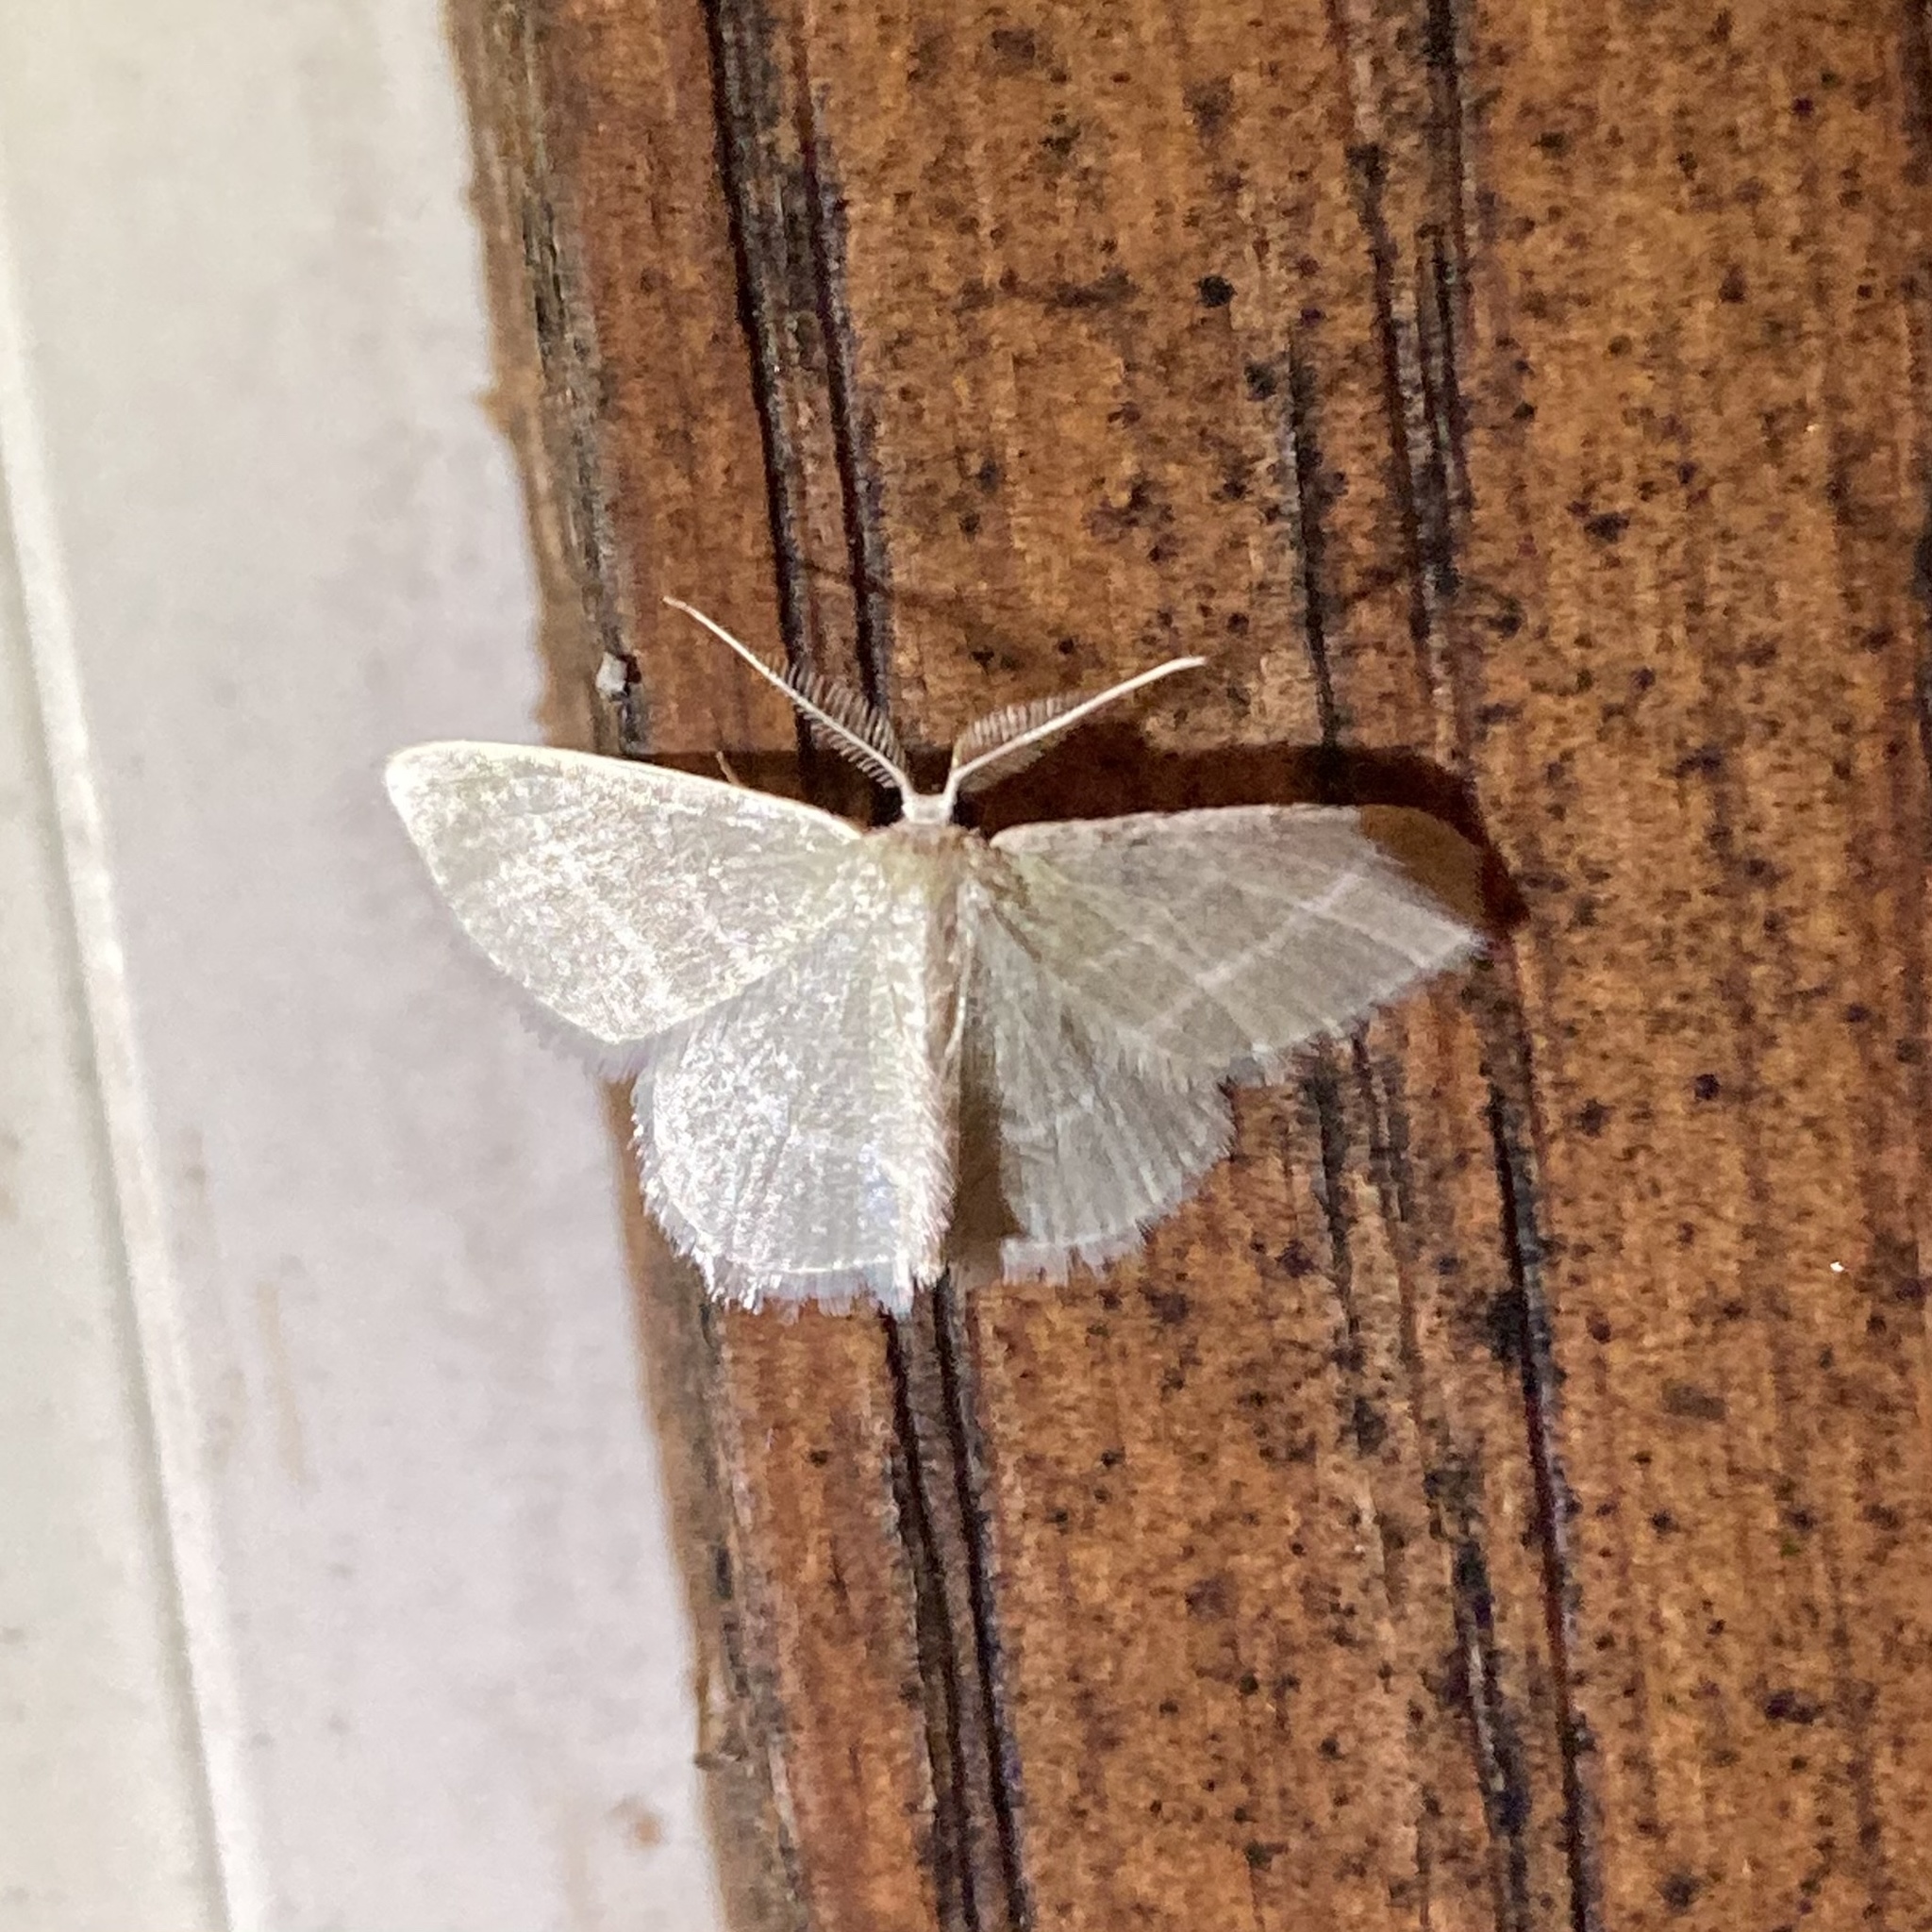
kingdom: Animalia
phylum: Arthropoda
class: Insecta
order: Lepidoptera
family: Geometridae
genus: Chlorochlamys
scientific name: Chlorochlamys chloroleucaria
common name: Blackberry looper
